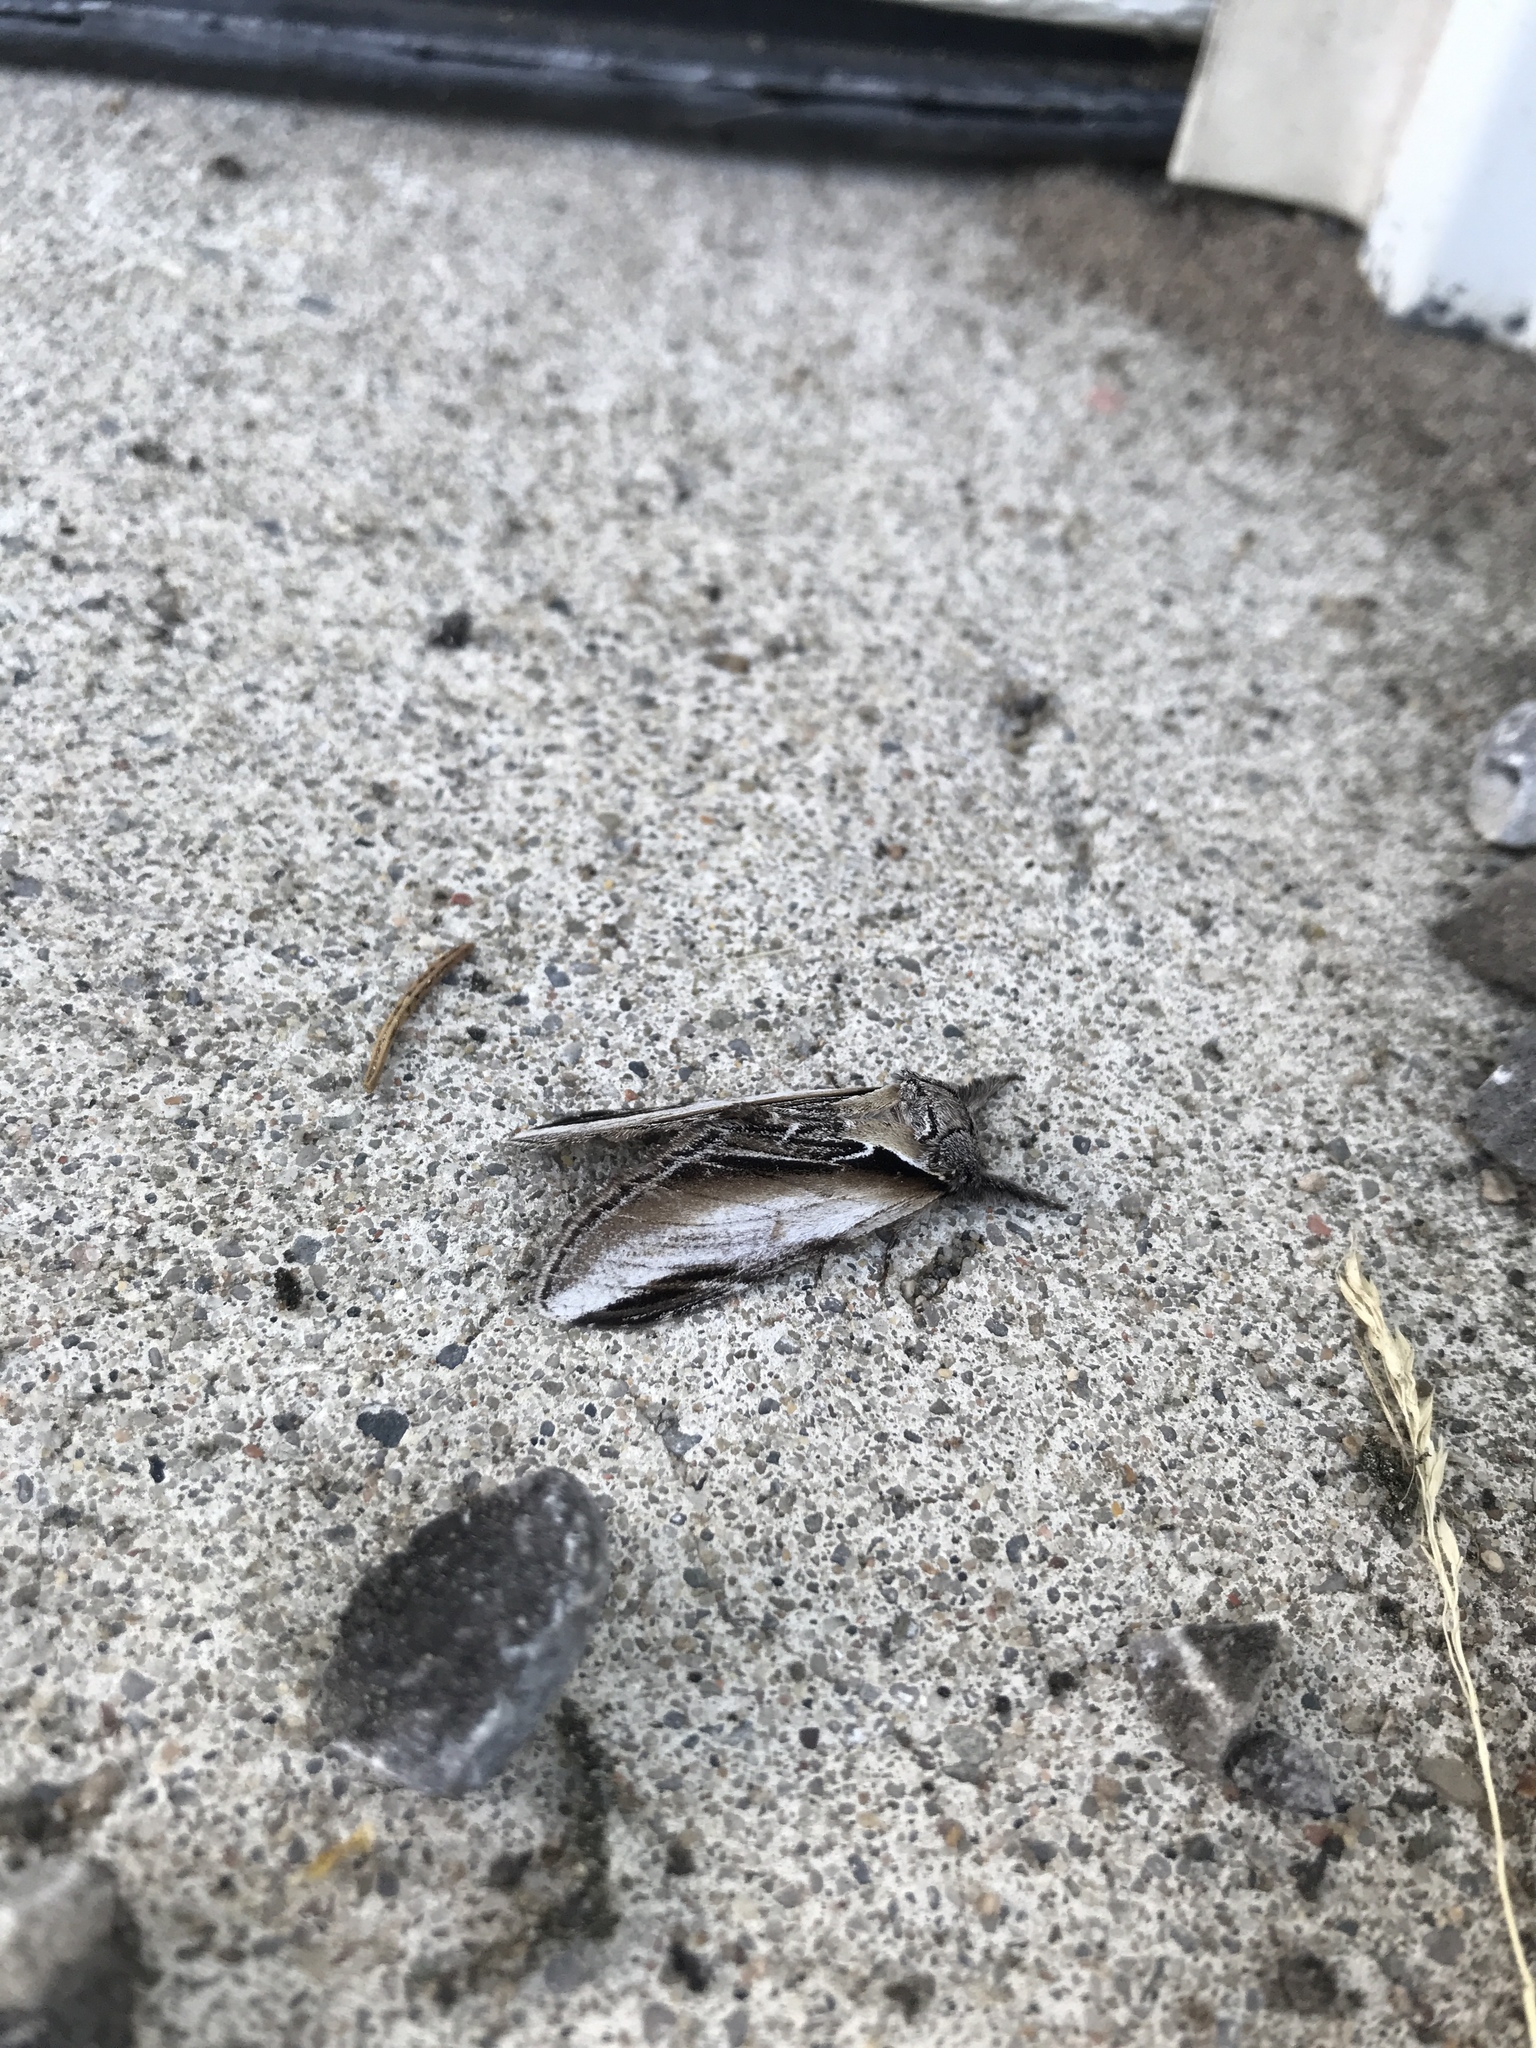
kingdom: Animalia
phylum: Arthropoda
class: Insecta
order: Lepidoptera
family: Notodontidae
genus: Pheosia
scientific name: Pheosia rimosa
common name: Black-rimmed prominent
